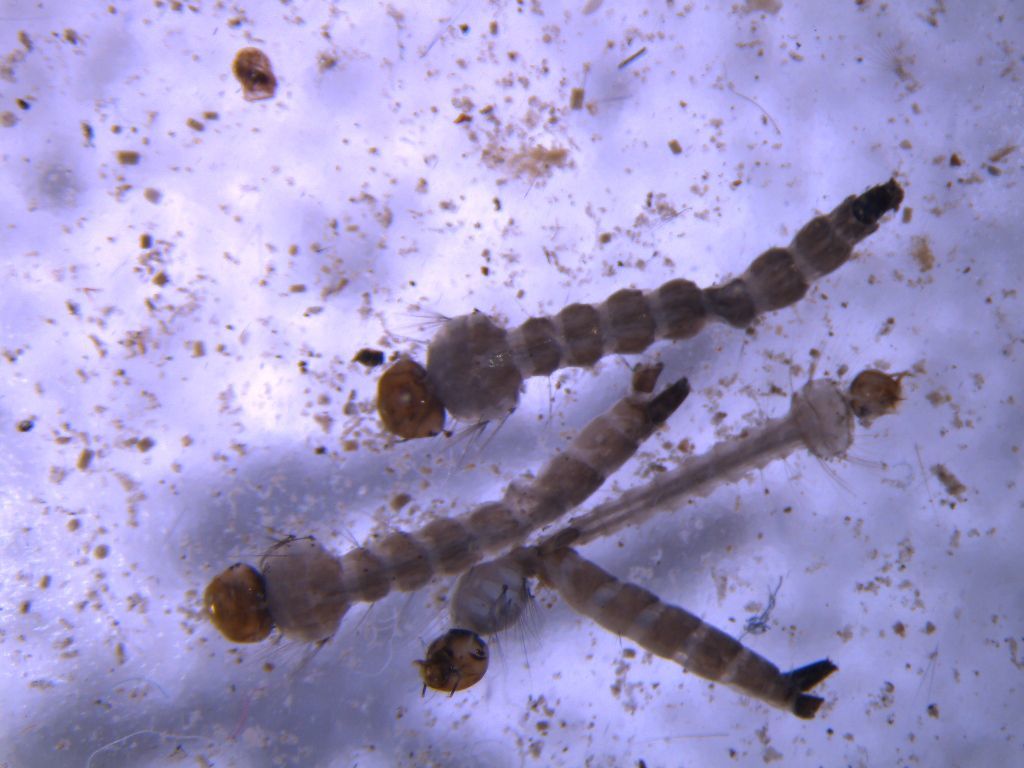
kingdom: Animalia
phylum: Arthropoda
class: Insecta
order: Diptera
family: Culicidae
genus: Aedes
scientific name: Aedes notoscriptus
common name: Australian backyard mosquito
